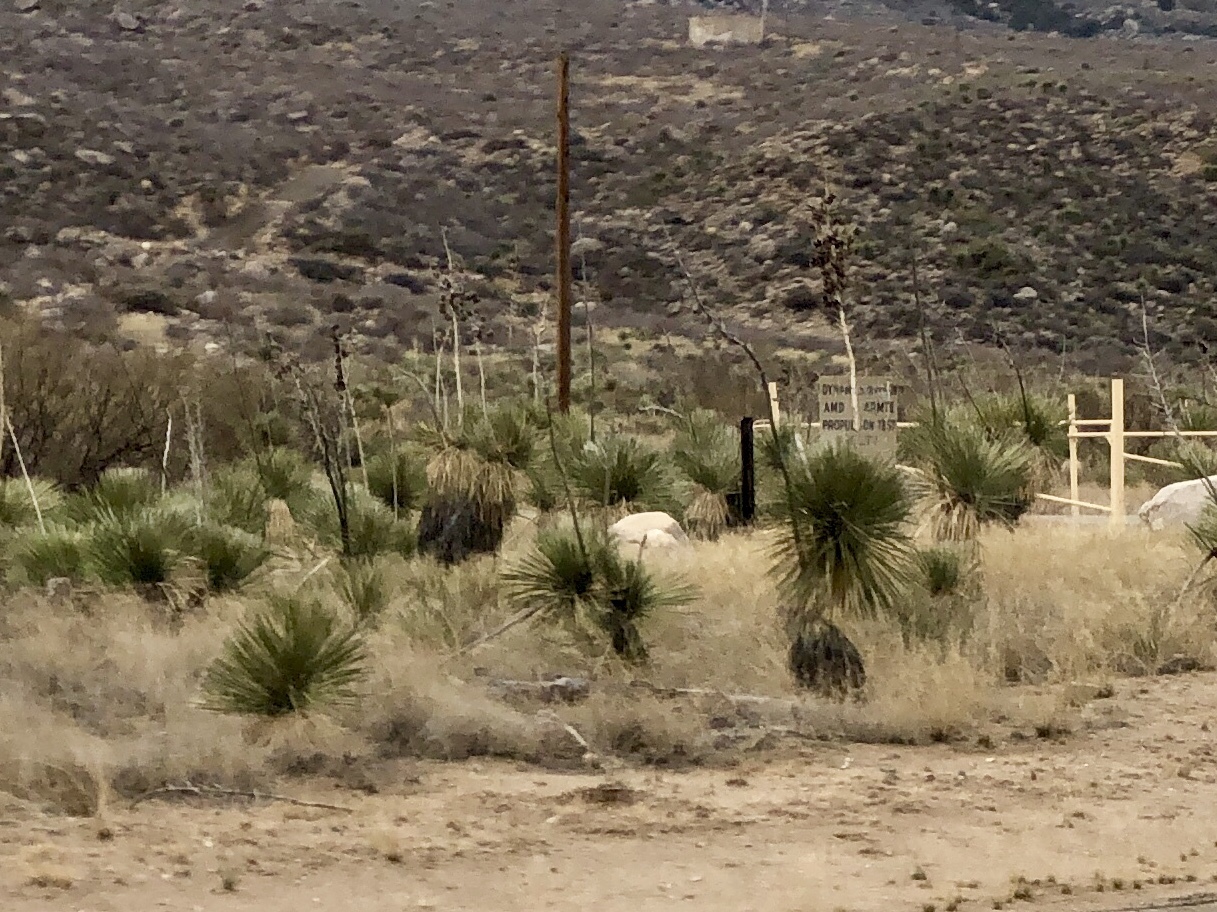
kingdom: Plantae
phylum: Tracheophyta
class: Liliopsida
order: Asparagales
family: Asparagaceae
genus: Yucca
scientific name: Yucca elata
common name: Palmella
